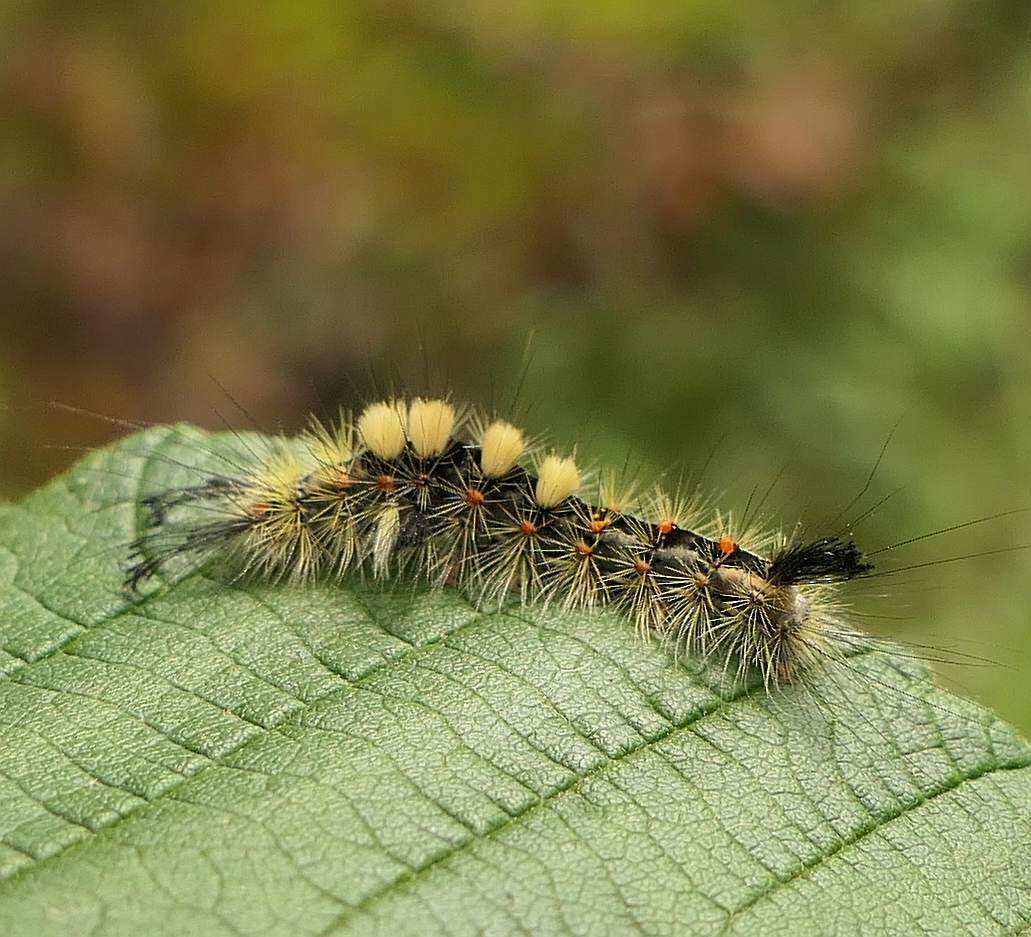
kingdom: Animalia
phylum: Arthropoda
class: Insecta
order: Lepidoptera
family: Erebidae
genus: Orgyia
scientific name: Orgyia antiqua
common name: Vapourer
